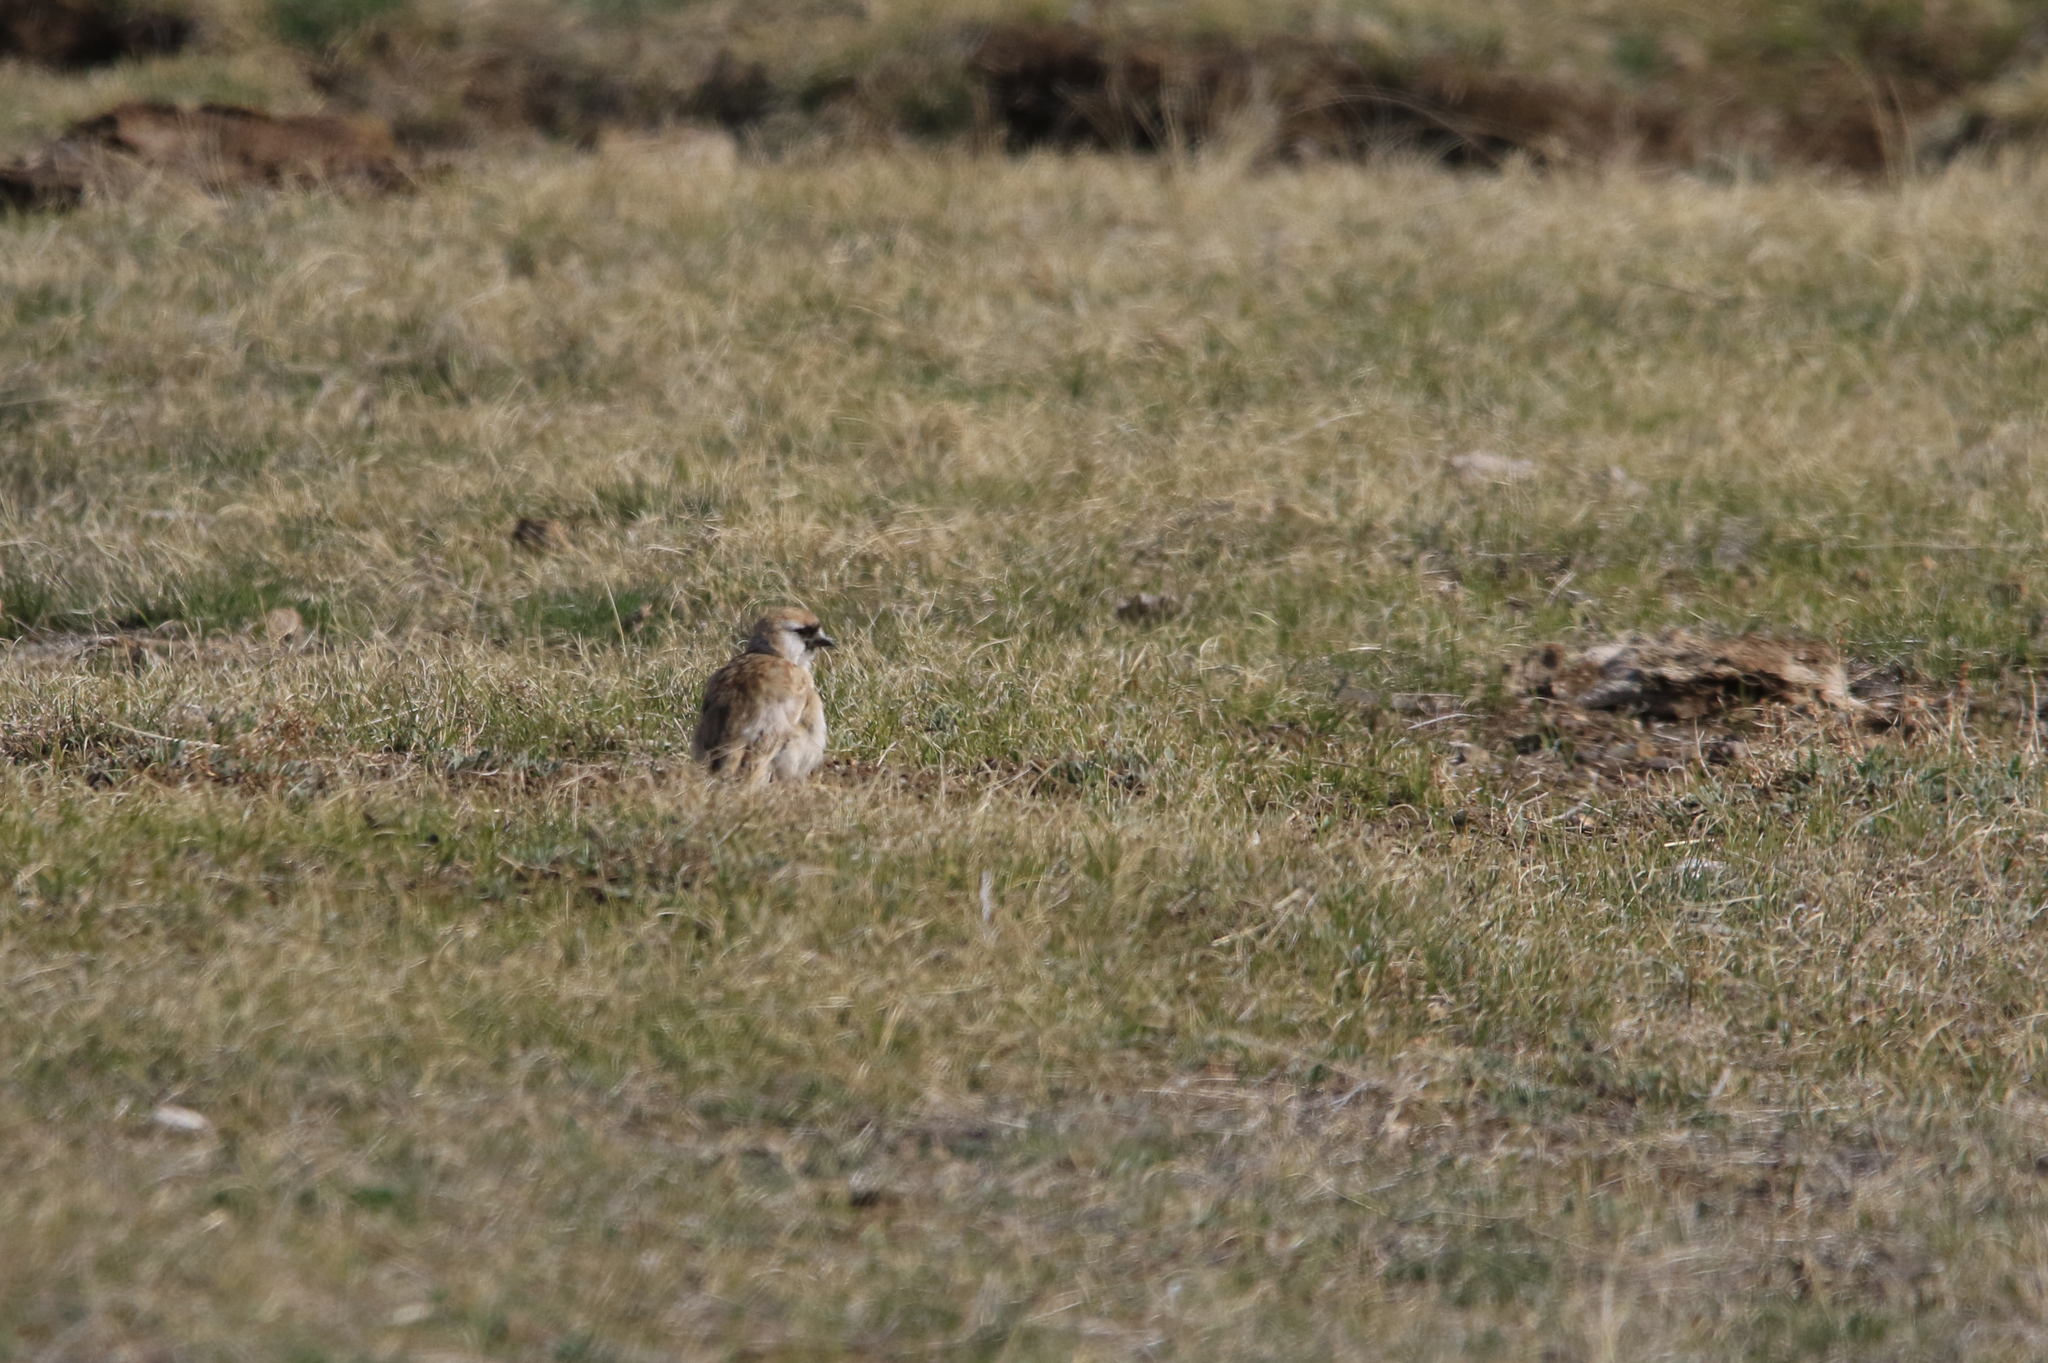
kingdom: Animalia
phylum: Chordata
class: Aves
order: Passeriformes
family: Passeridae
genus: Pyrgilauda
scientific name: Pyrgilauda davidiana
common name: Pere david's snowfinch
